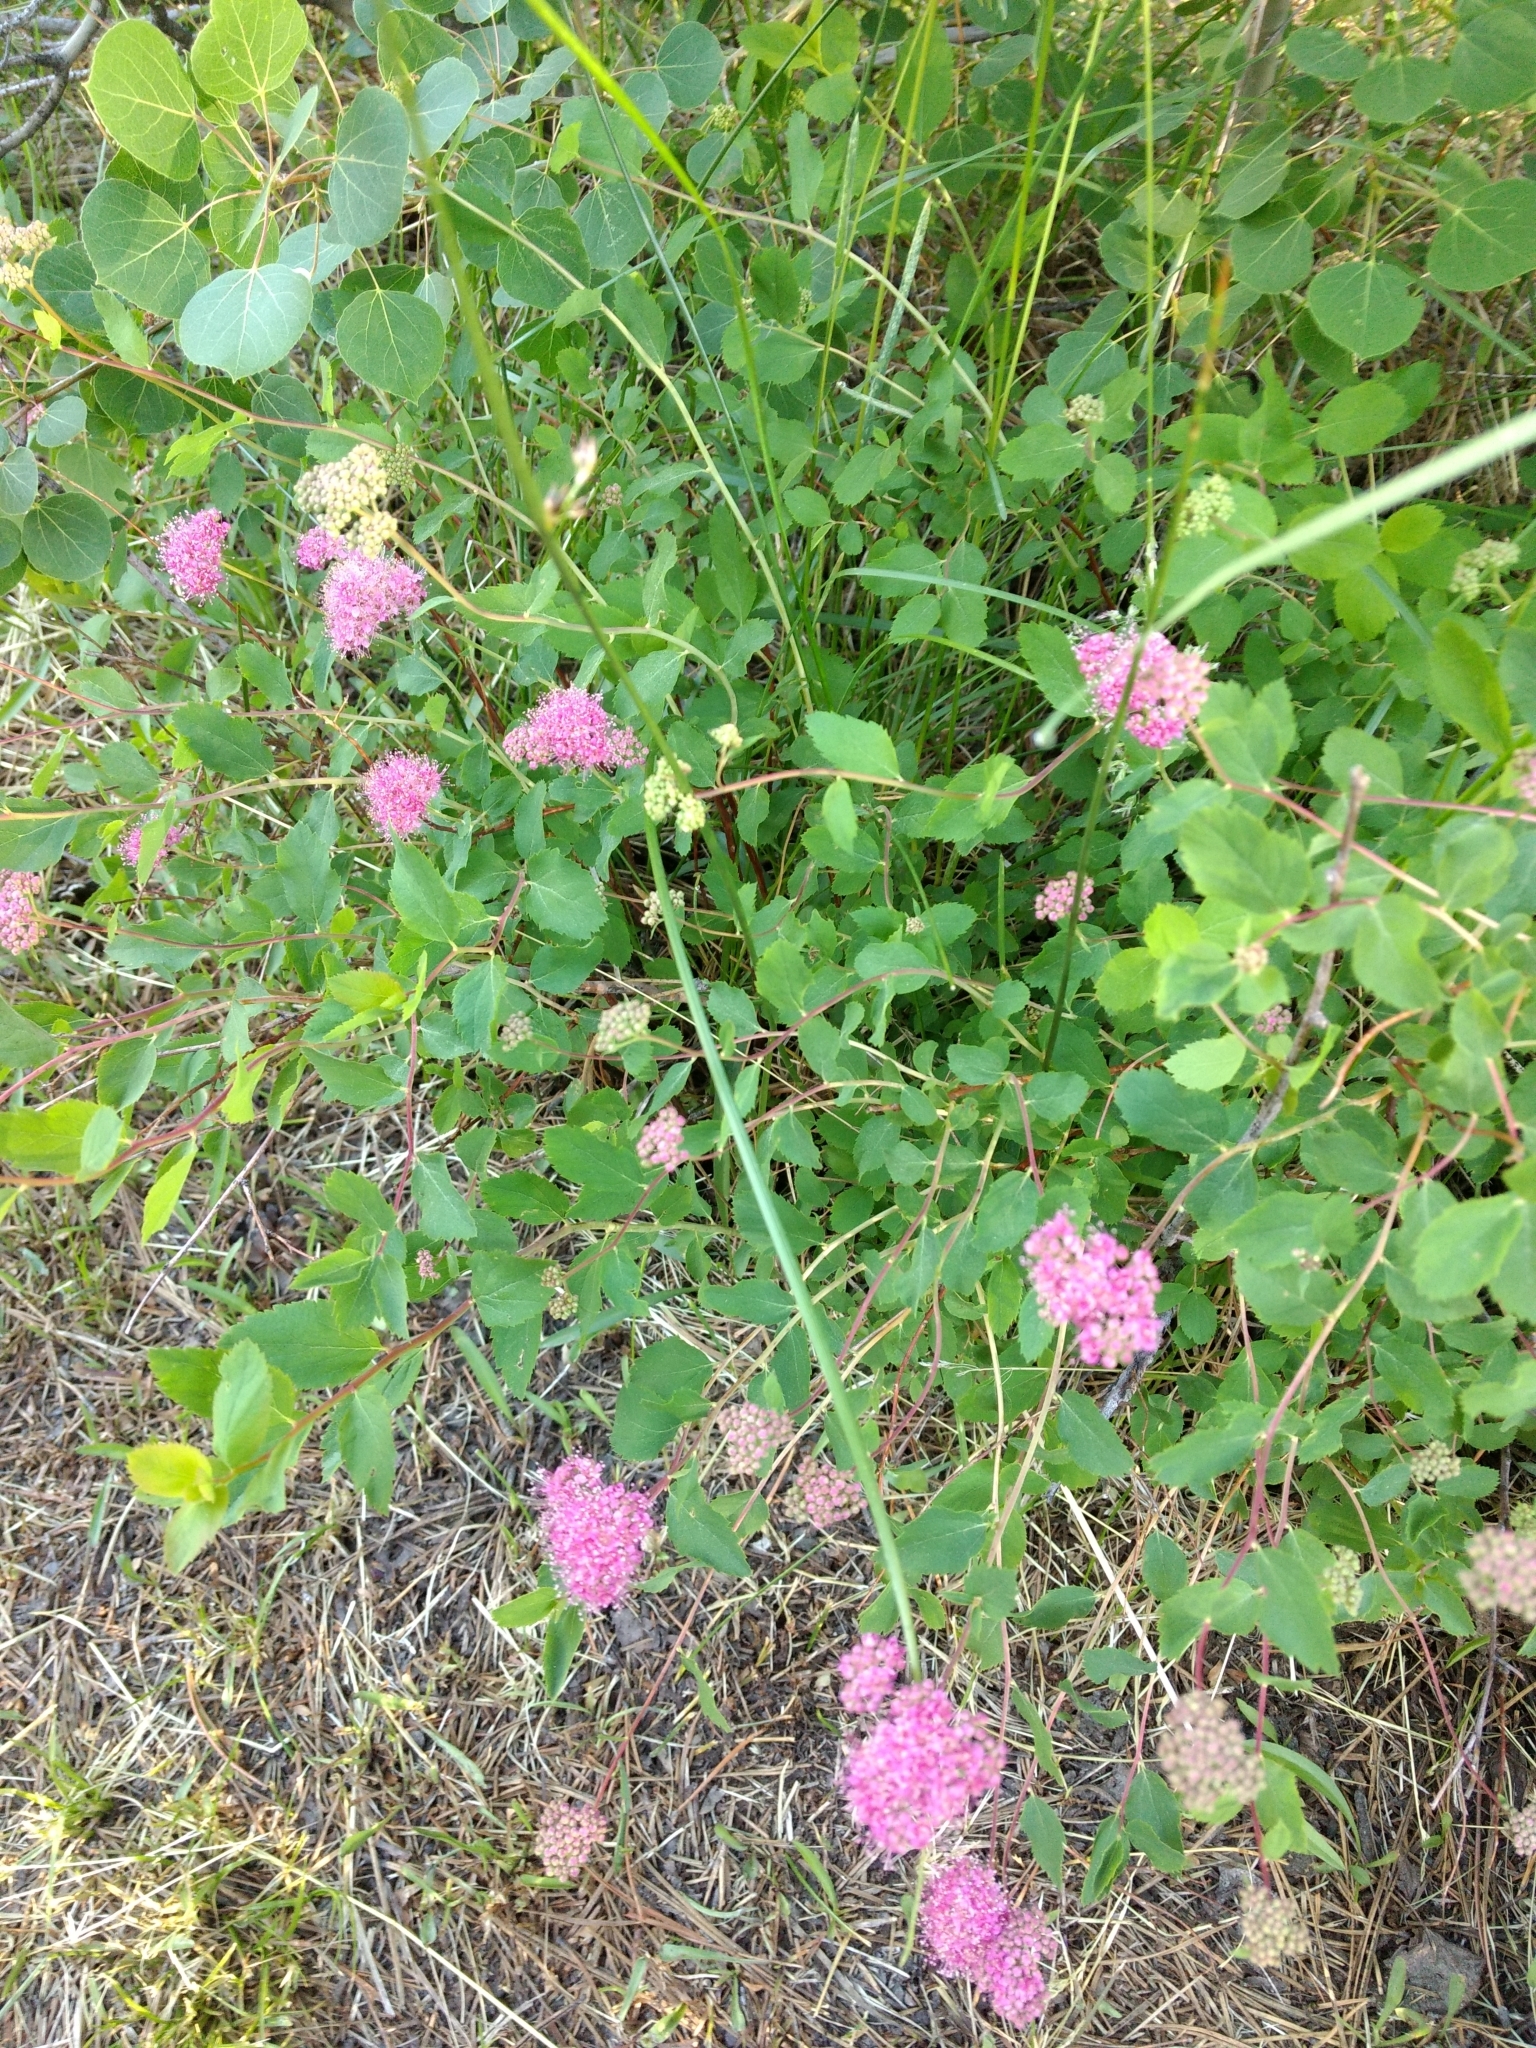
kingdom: Plantae
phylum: Tracheophyta
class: Magnoliopsida
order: Rosales
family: Rosaceae
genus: Spiraea
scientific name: Spiraea splendens
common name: Subalpine meadowsweet
